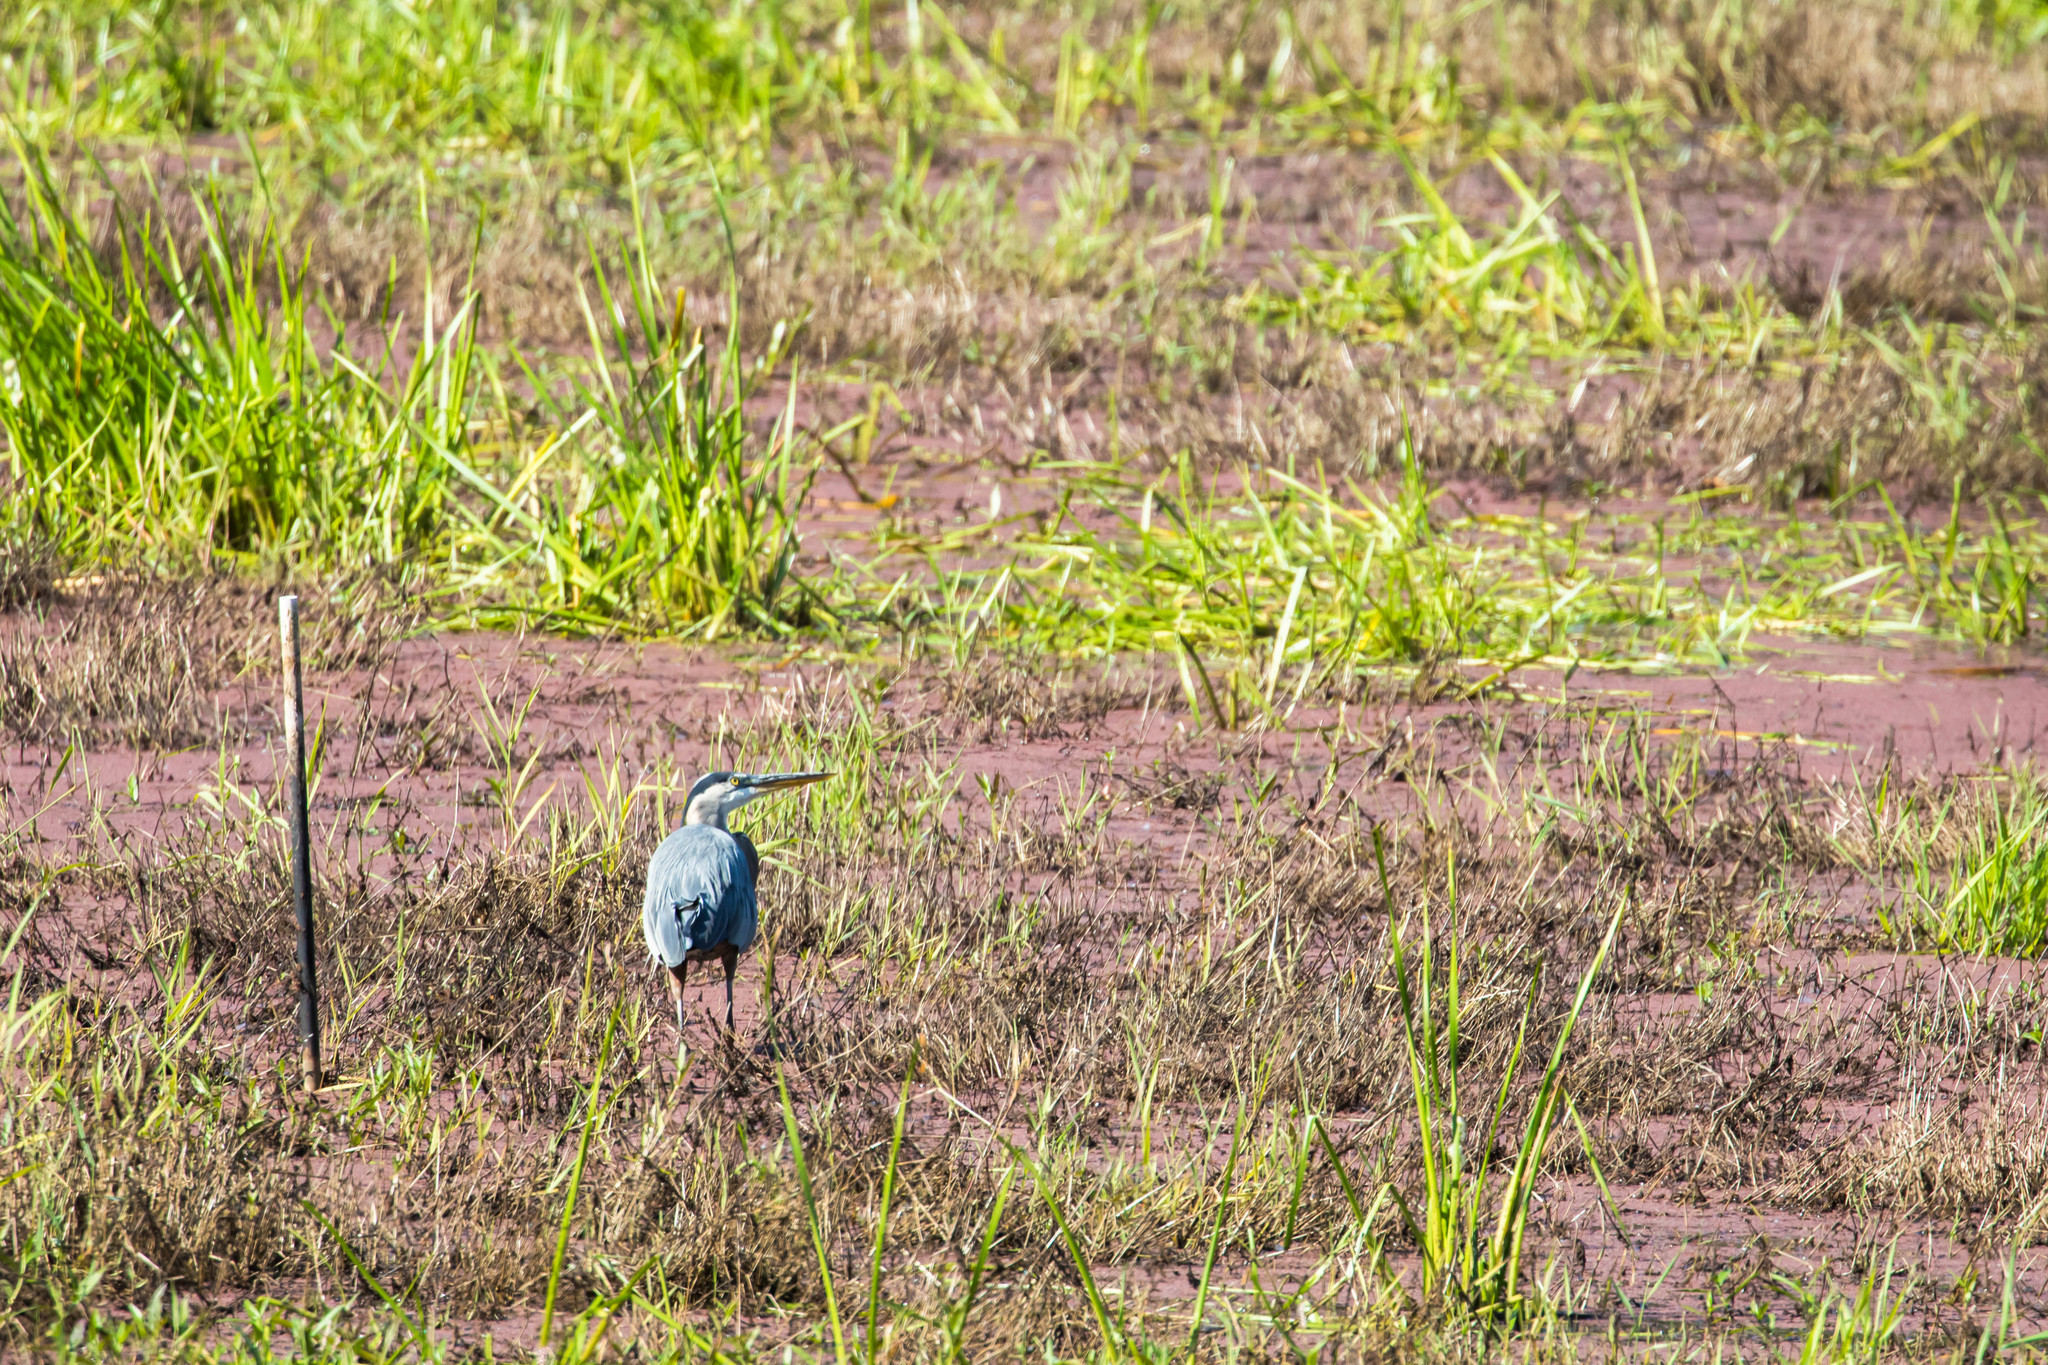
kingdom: Animalia
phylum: Chordata
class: Aves
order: Pelecaniformes
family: Ardeidae
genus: Ardea
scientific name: Ardea herodias
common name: Great blue heron
